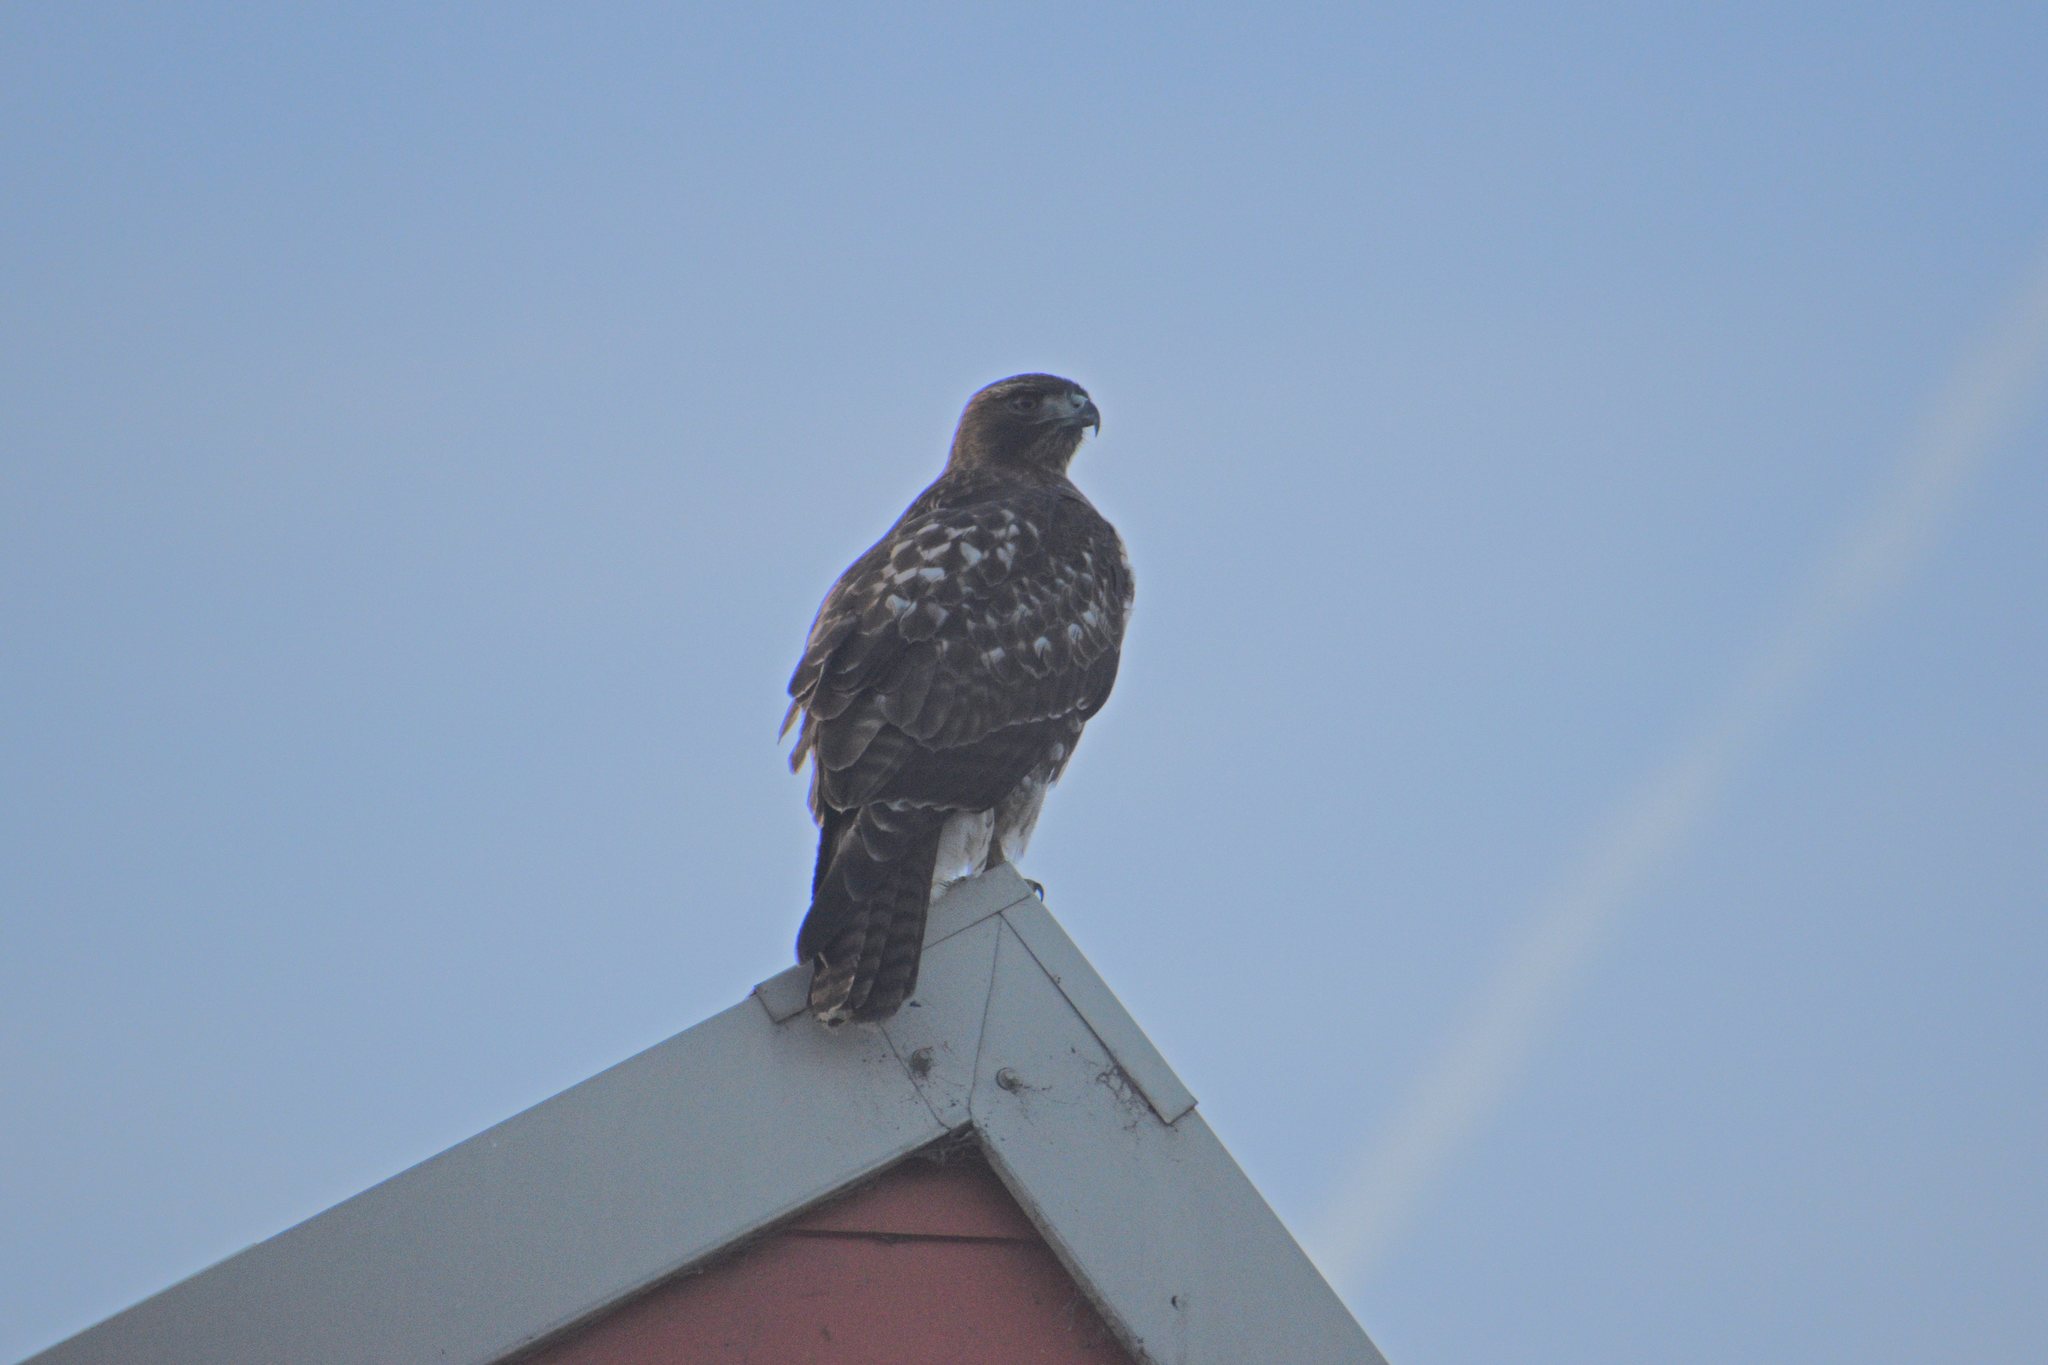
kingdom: Animalia
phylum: Chordata
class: Aves
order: Accipitriformes
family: Accipitridae
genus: Buteo
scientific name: Buteo jamaicensis
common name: Red-tailed hawk
